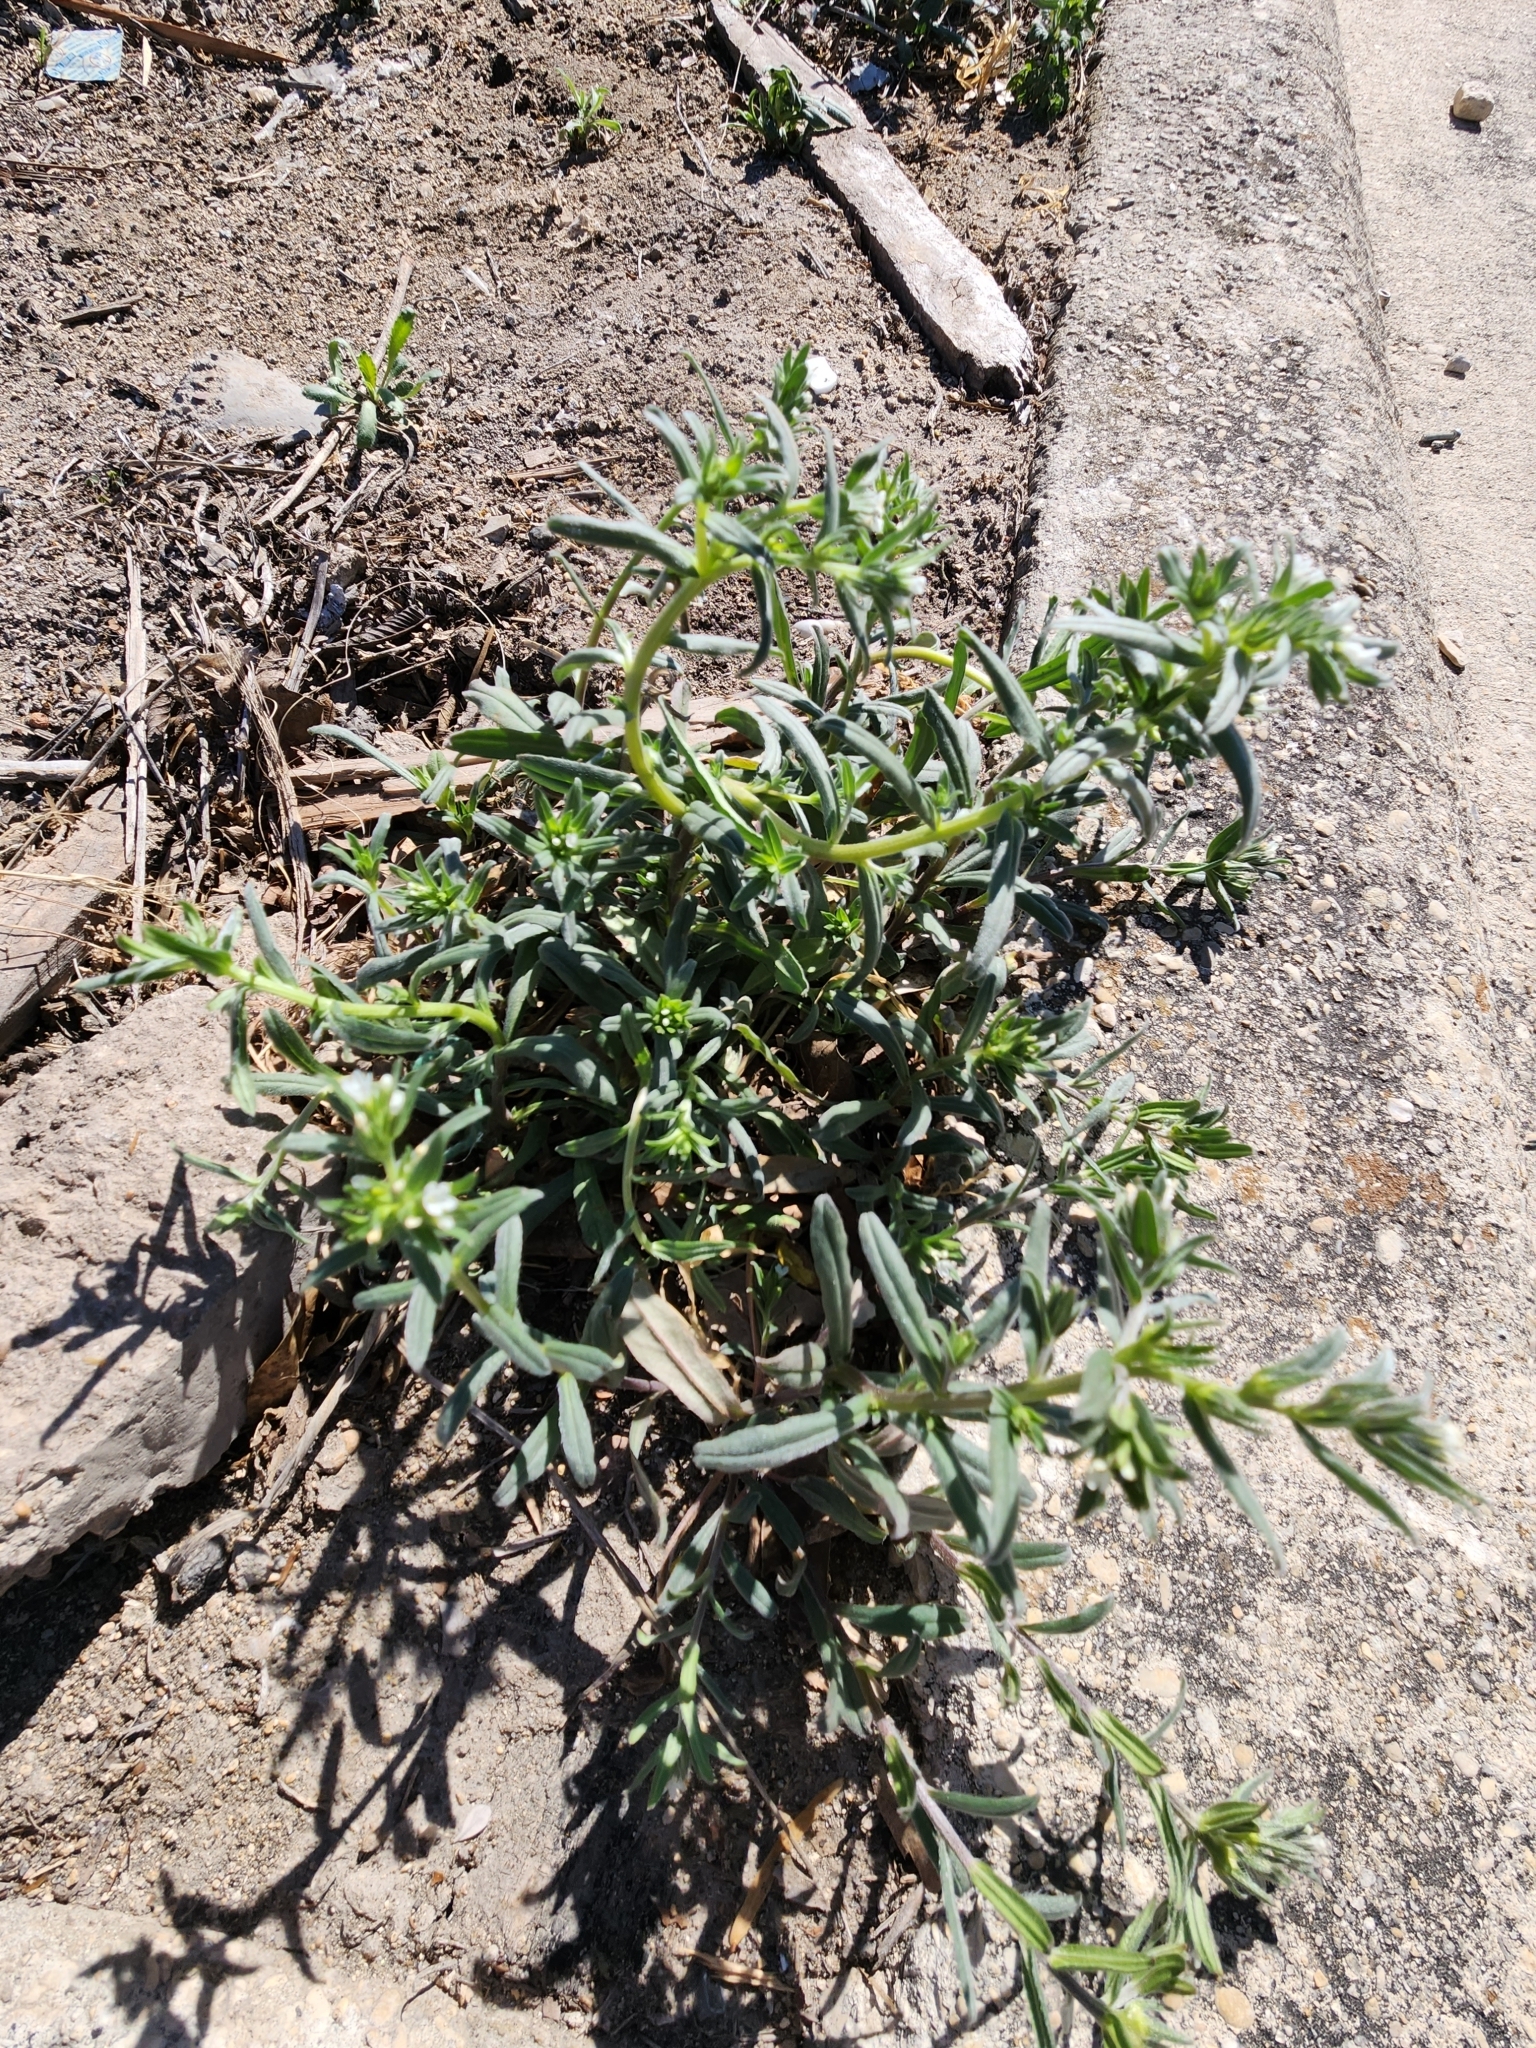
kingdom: Plantae
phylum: Tracheophyta
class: Magnoliopsida
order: Boraginales
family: Boraginaceae
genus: Buglossoides
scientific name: Buglossoides arvensis
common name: Corn gromwell
